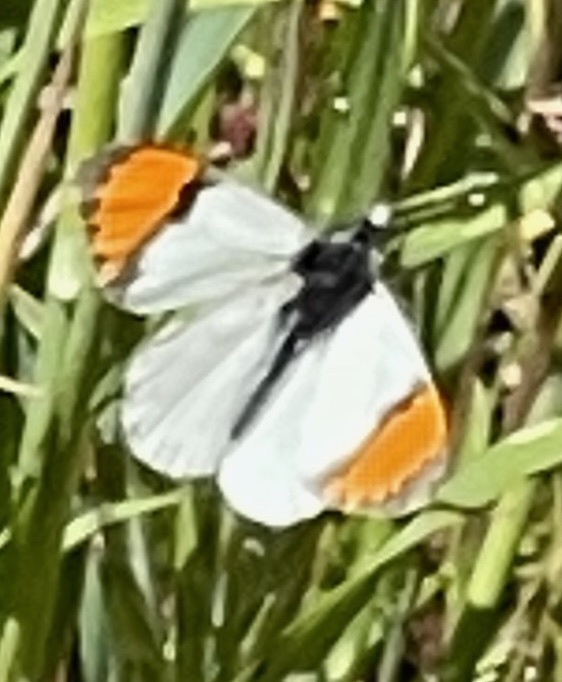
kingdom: Animalia
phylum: Arthropoda
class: Insecta
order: Lepidoptera
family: Pieridae
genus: Anthocharis
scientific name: Anthocharis sara
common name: Sara's orangetip
